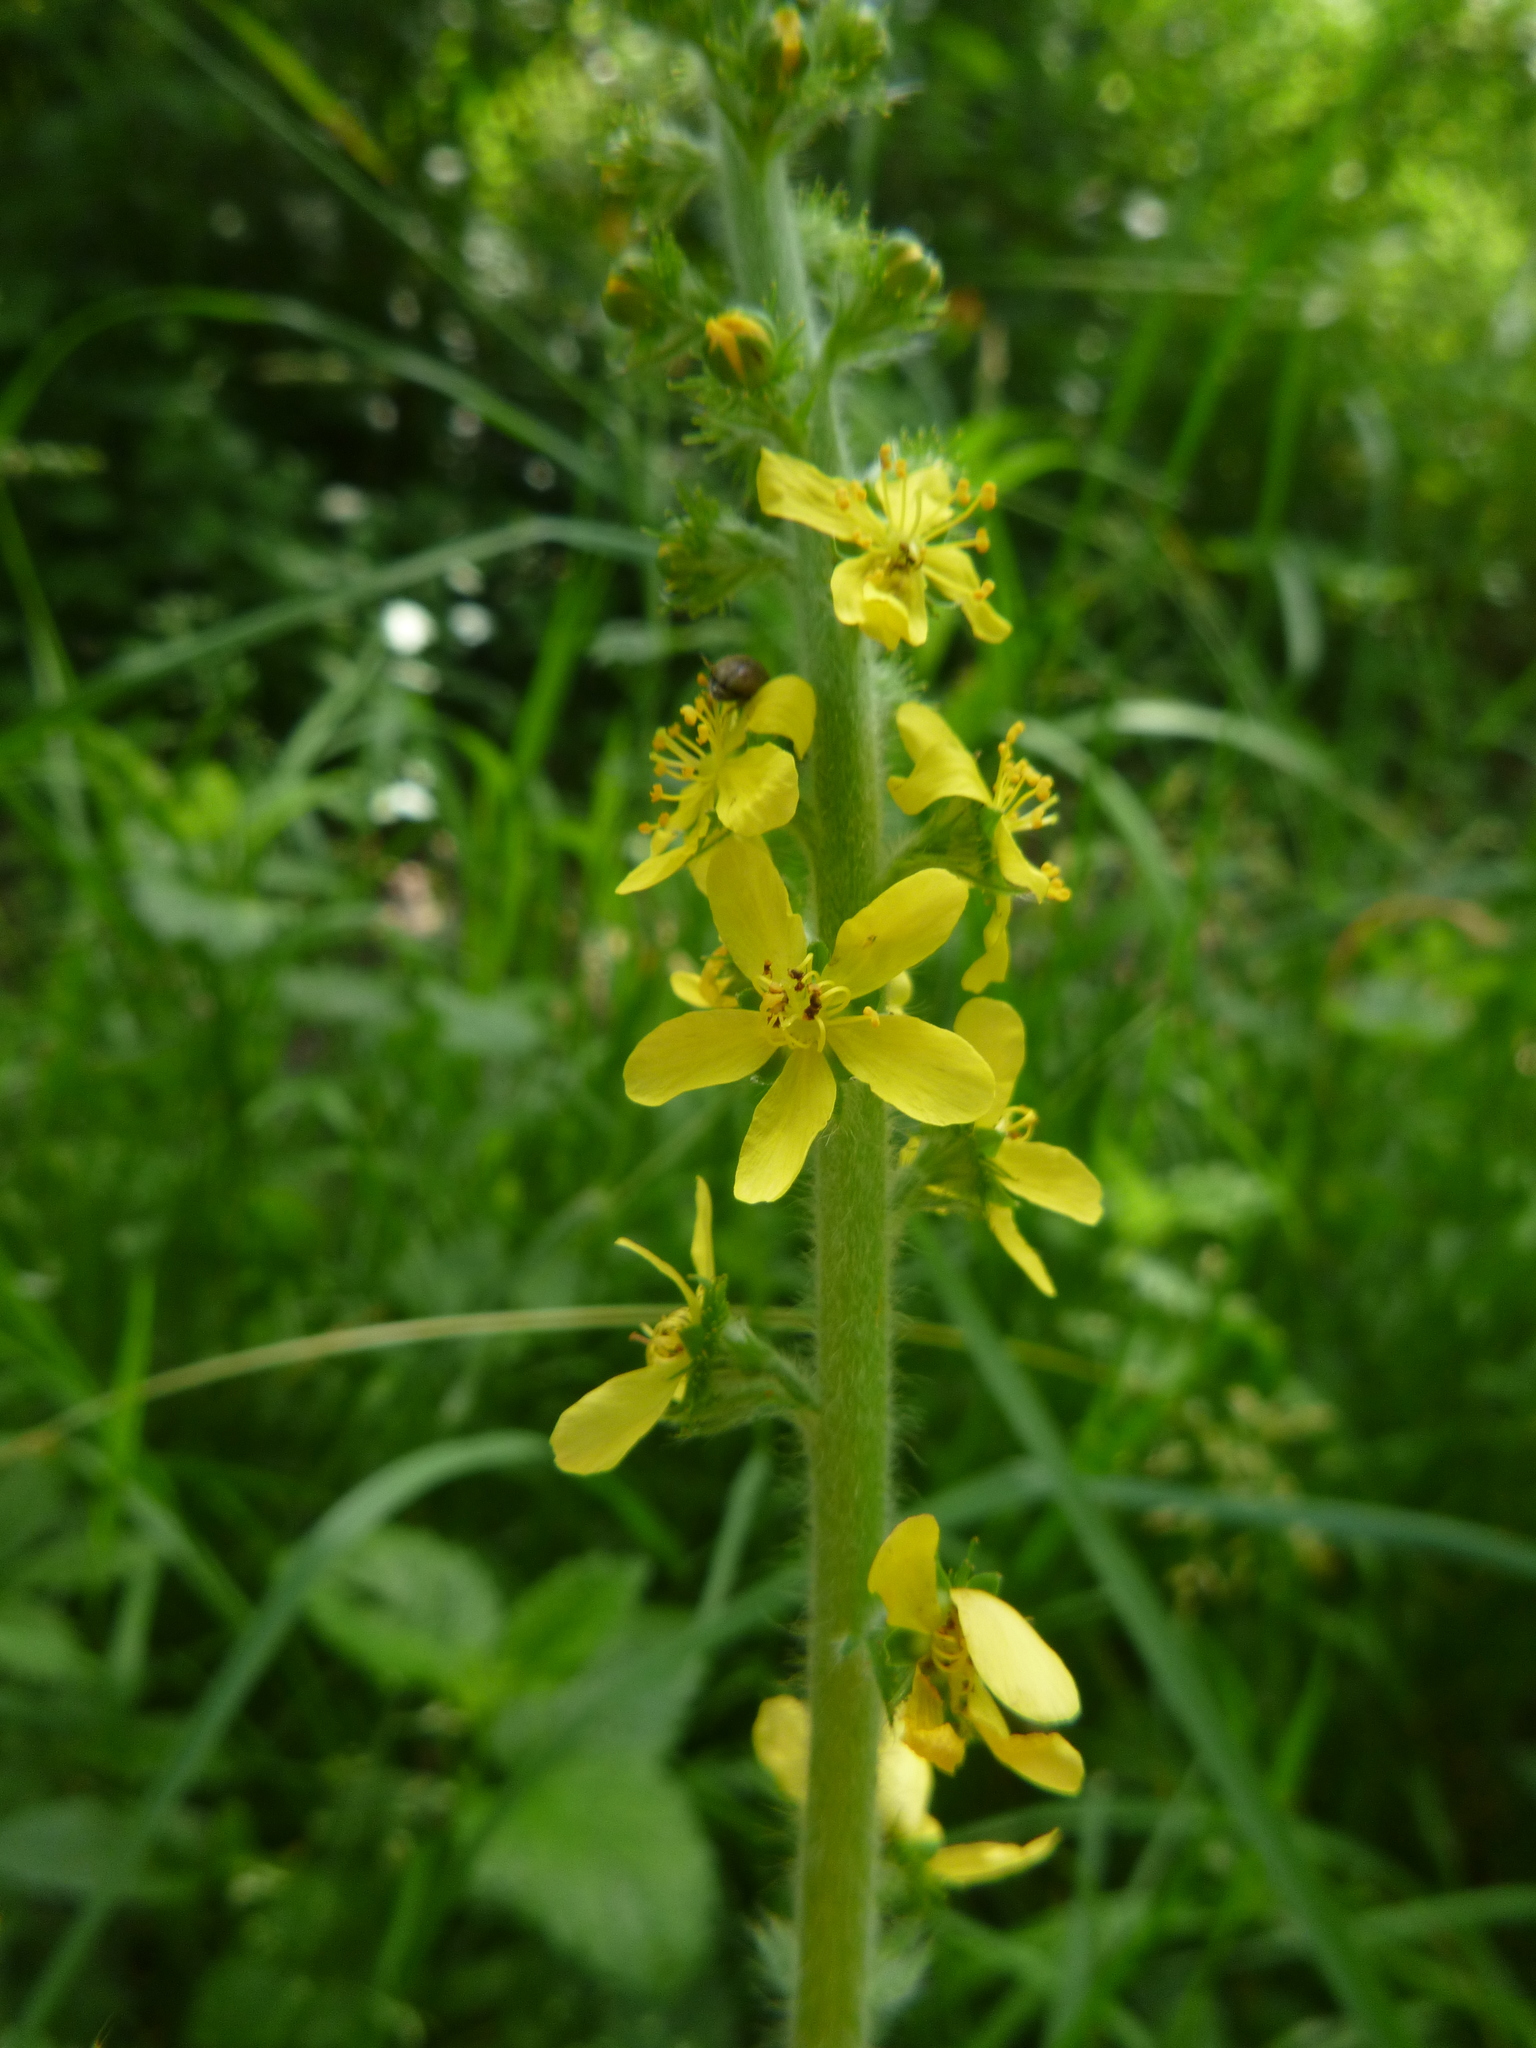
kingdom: Plantae
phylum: Tracheophyta
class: Magnoliopsida
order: Rosales
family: Rosaceae
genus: Agrimonia
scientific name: Agrimonia eupatoria
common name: Agrimony
